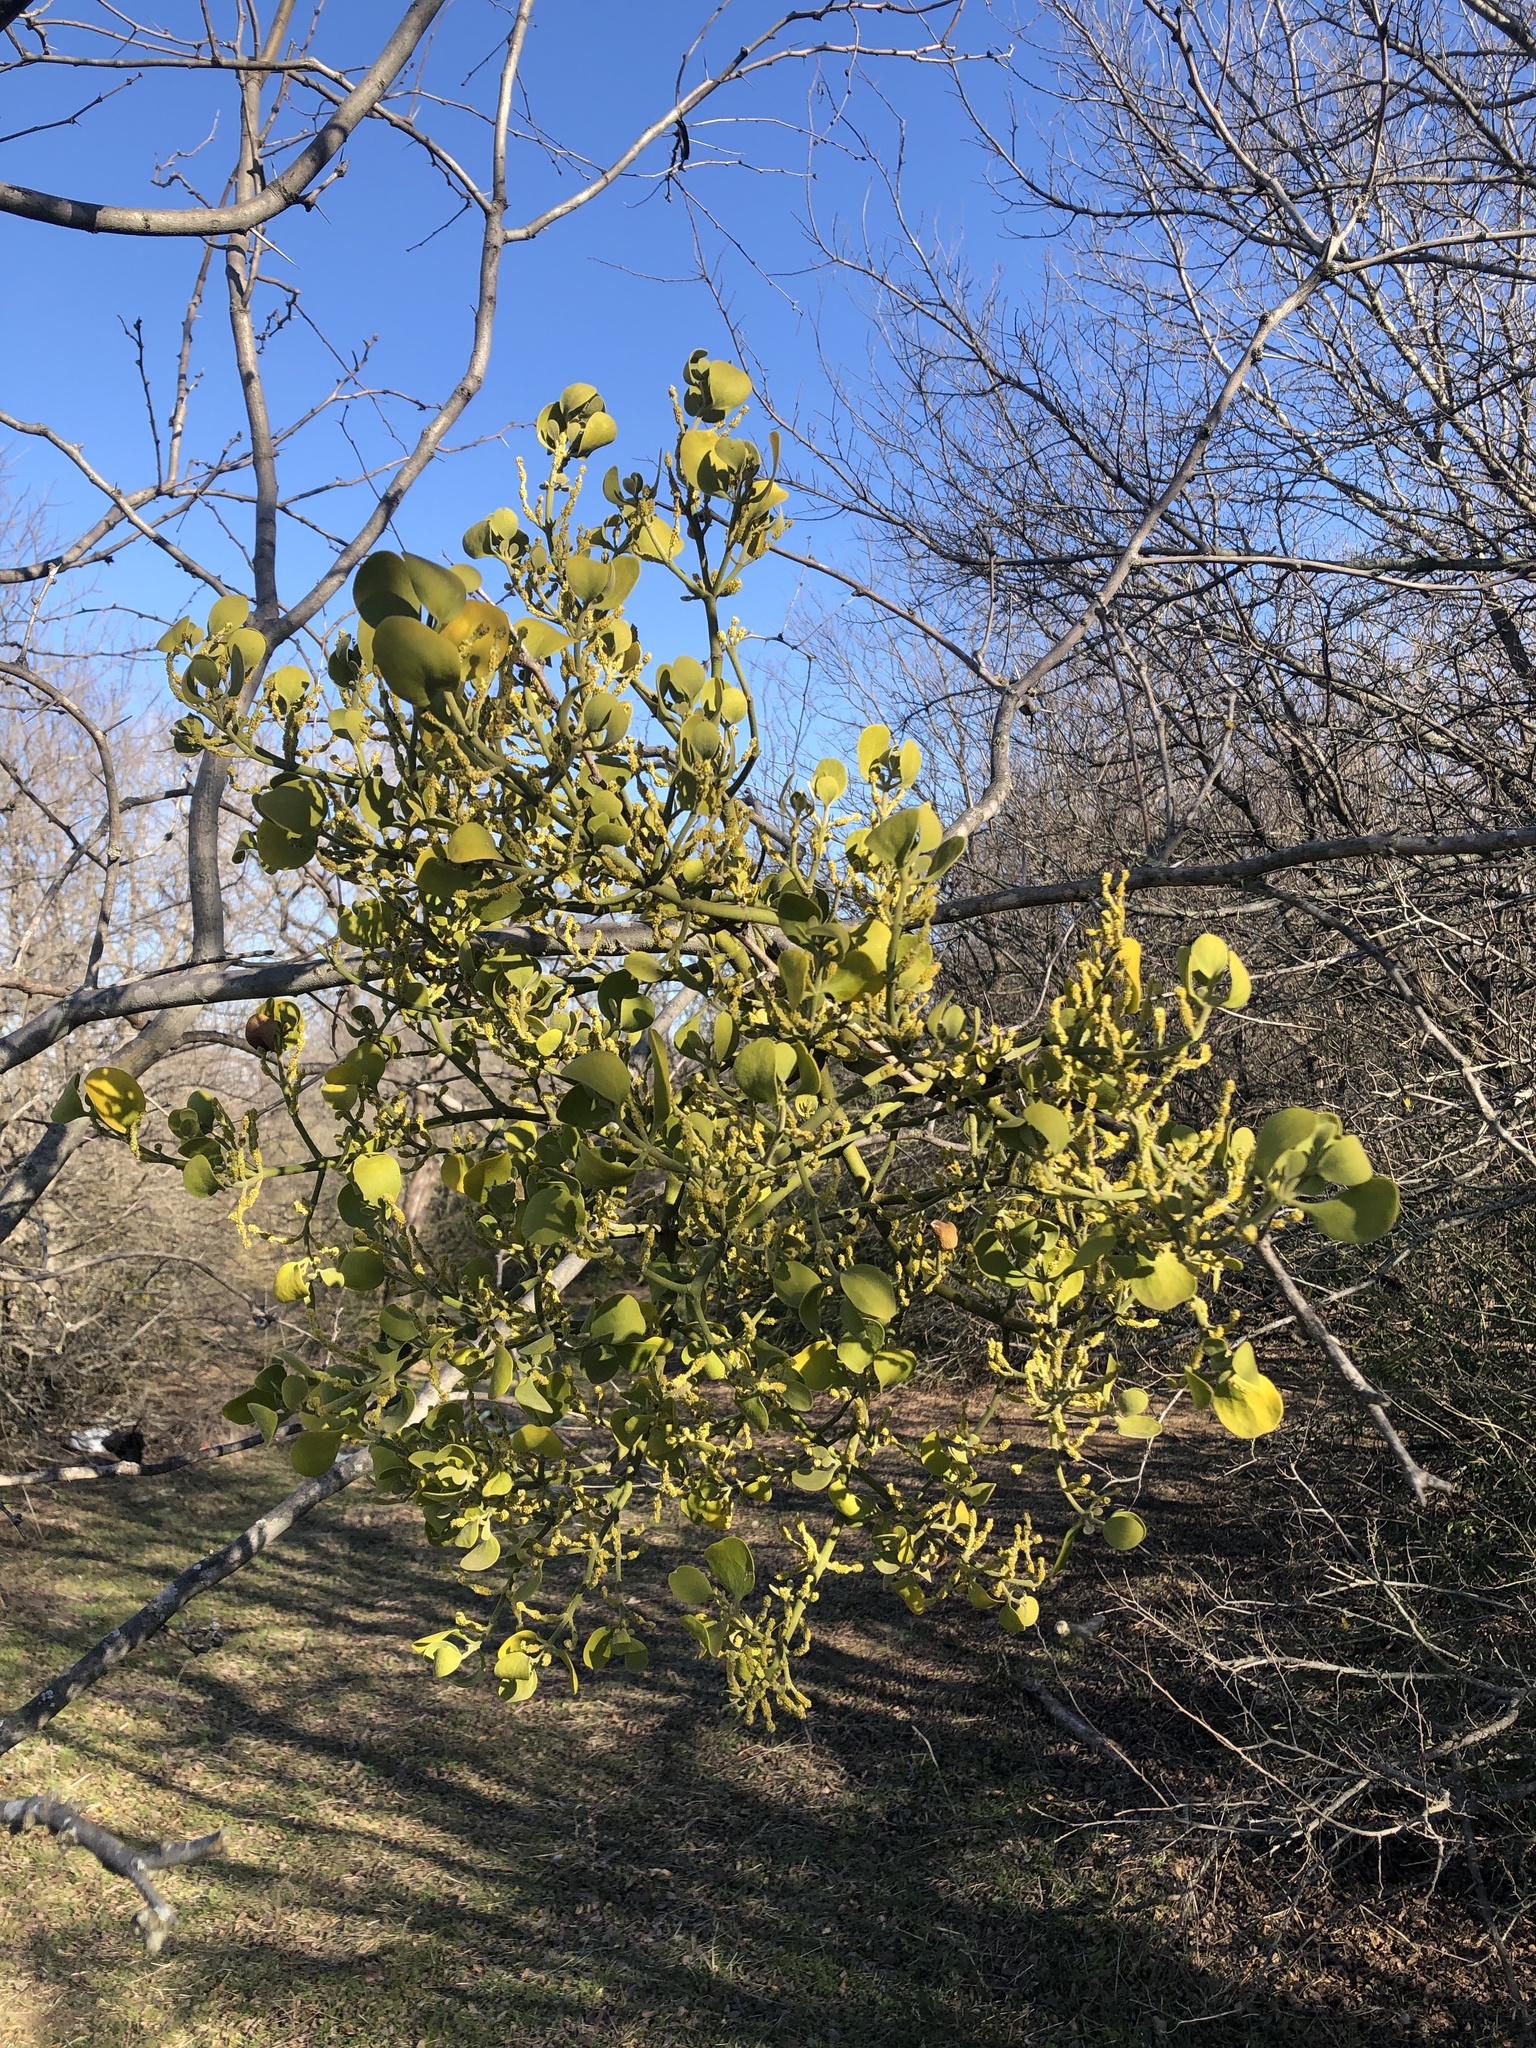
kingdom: Plantae
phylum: Tracheophyta
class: Magnoliopsida
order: Santalales
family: Viscaceae
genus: Phoradendron
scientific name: Phoradendron leucarpum
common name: Pacific mistletoe
